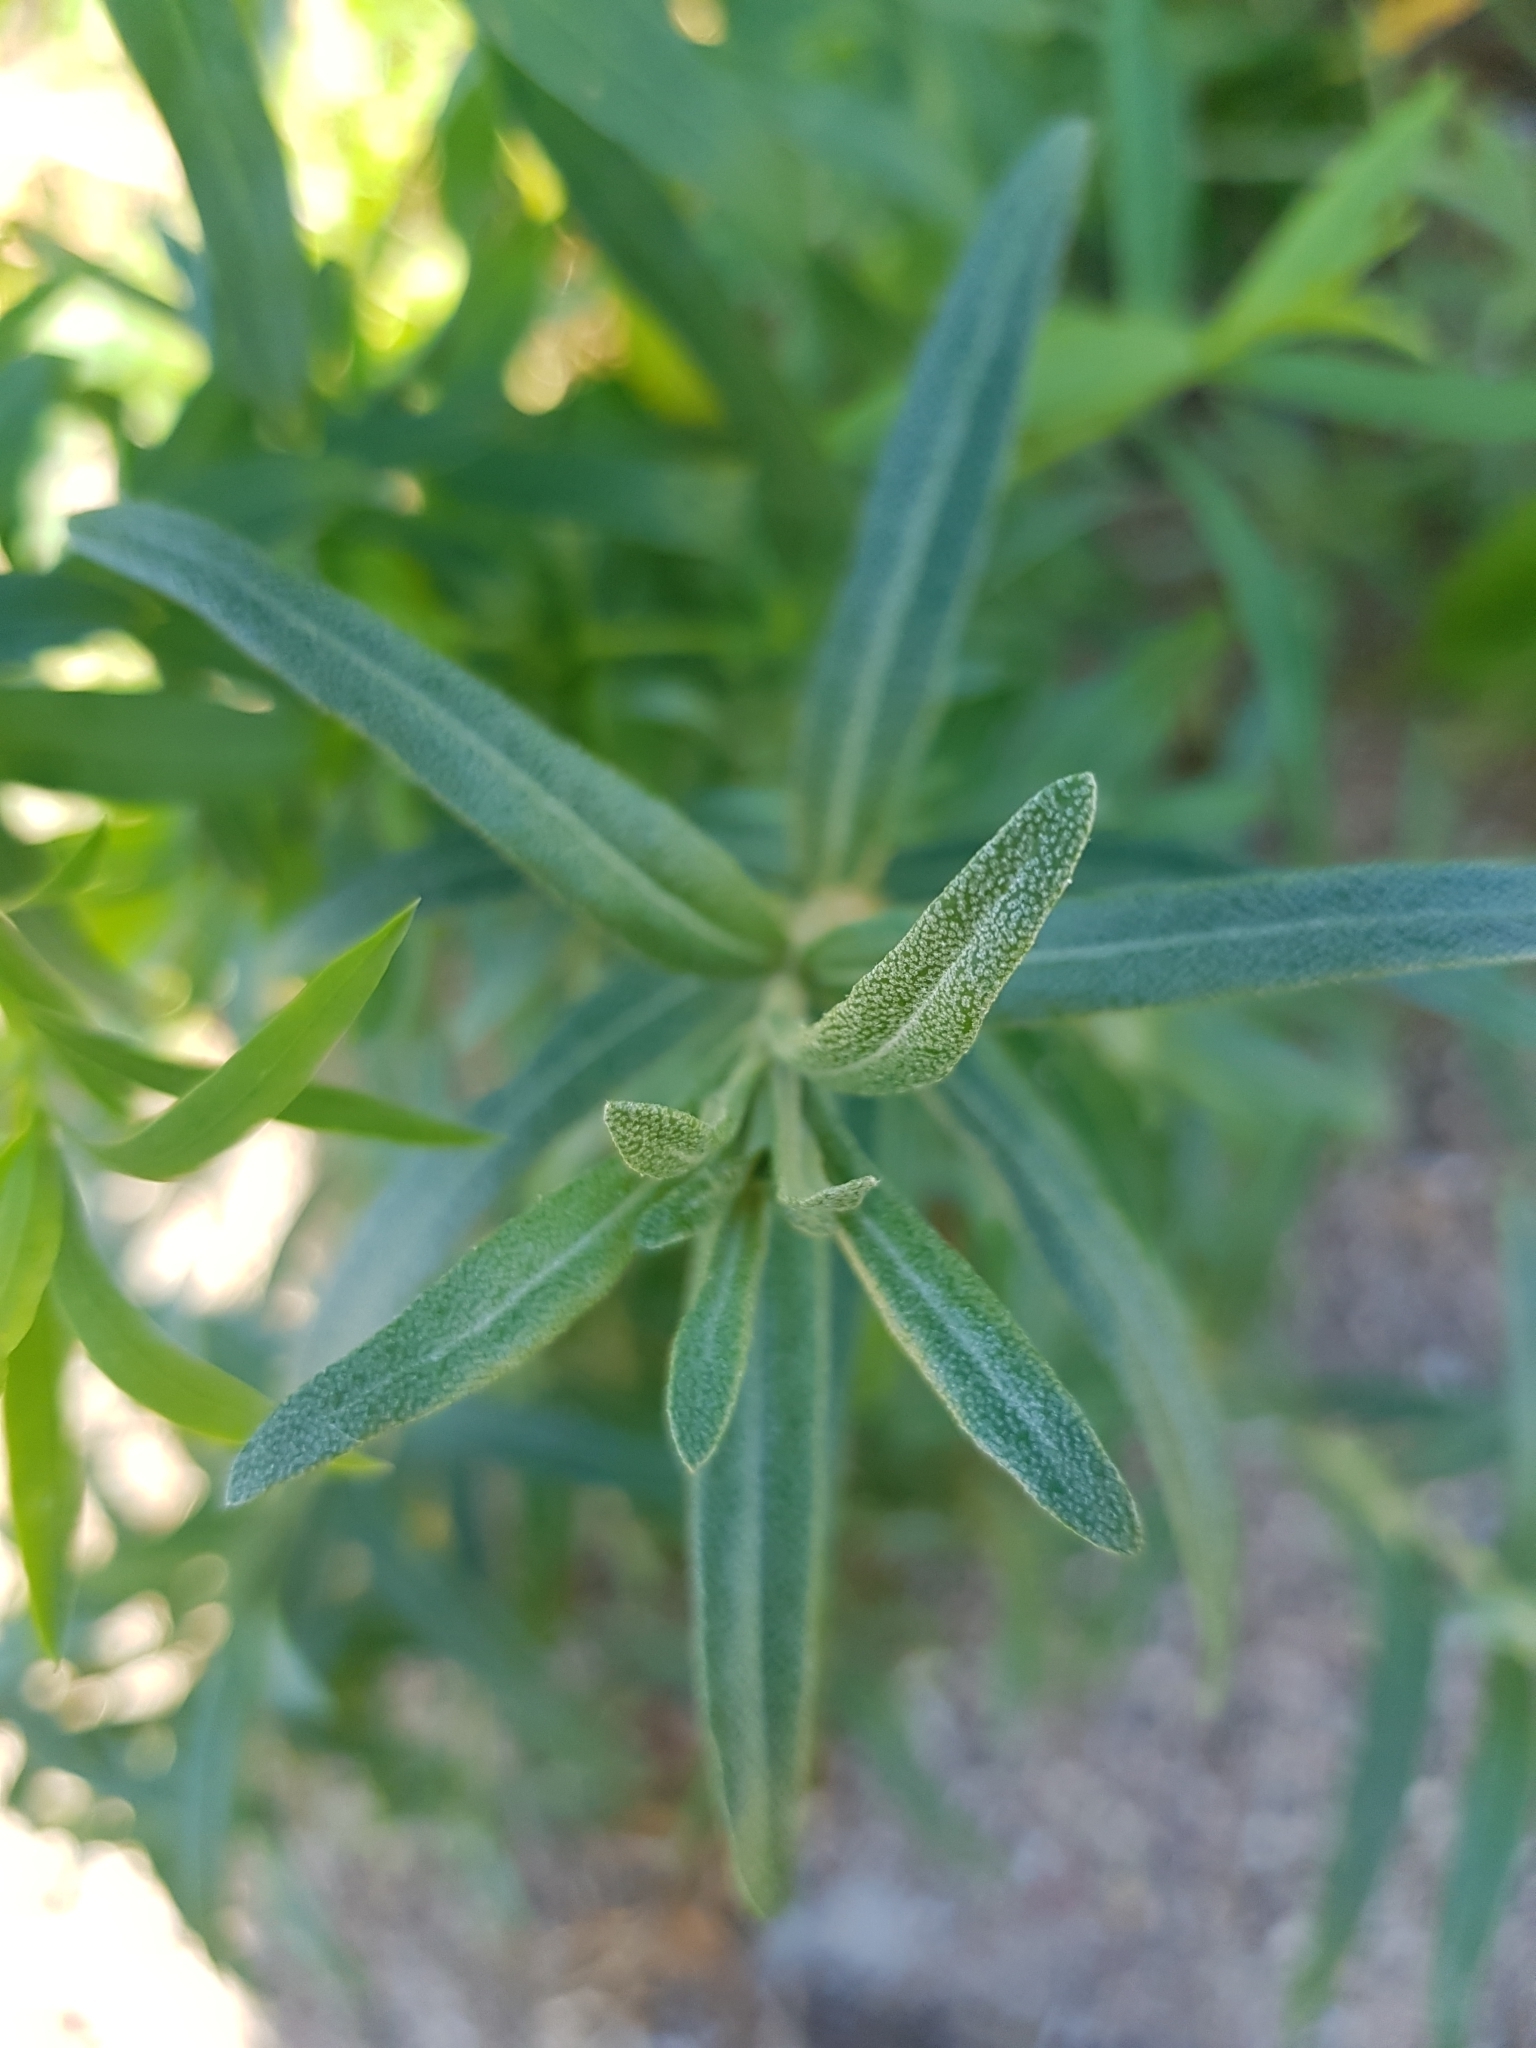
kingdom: Plantae
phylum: Tracheophyta
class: Magnoliopsida
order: Malpighiales
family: Euphorbiaceae
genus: Euphorbia
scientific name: Euphorbia virgata
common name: Leafy spurge
